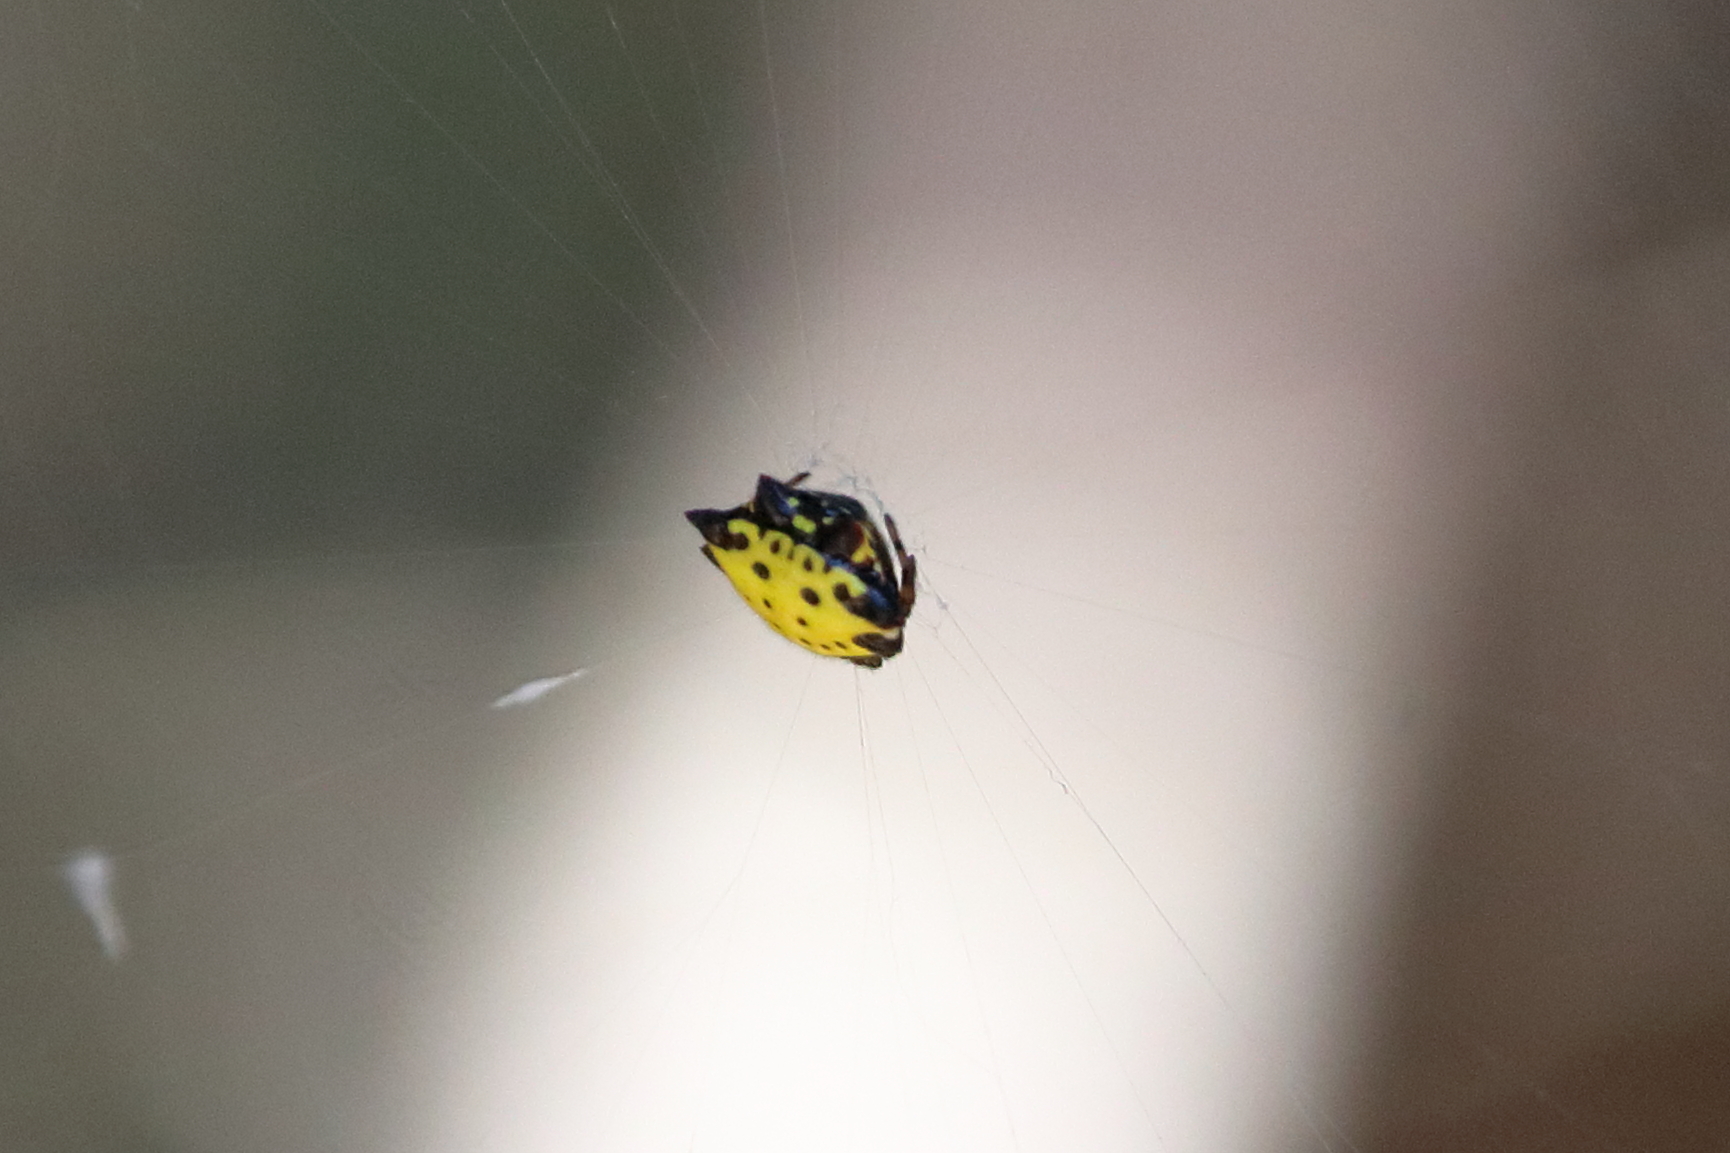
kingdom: Animalia
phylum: Arthropoda
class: Arachnida
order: Araneae
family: Araneidae
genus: Gasteracantha
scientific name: Gasteracantha cancriformis
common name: Orb weavers
